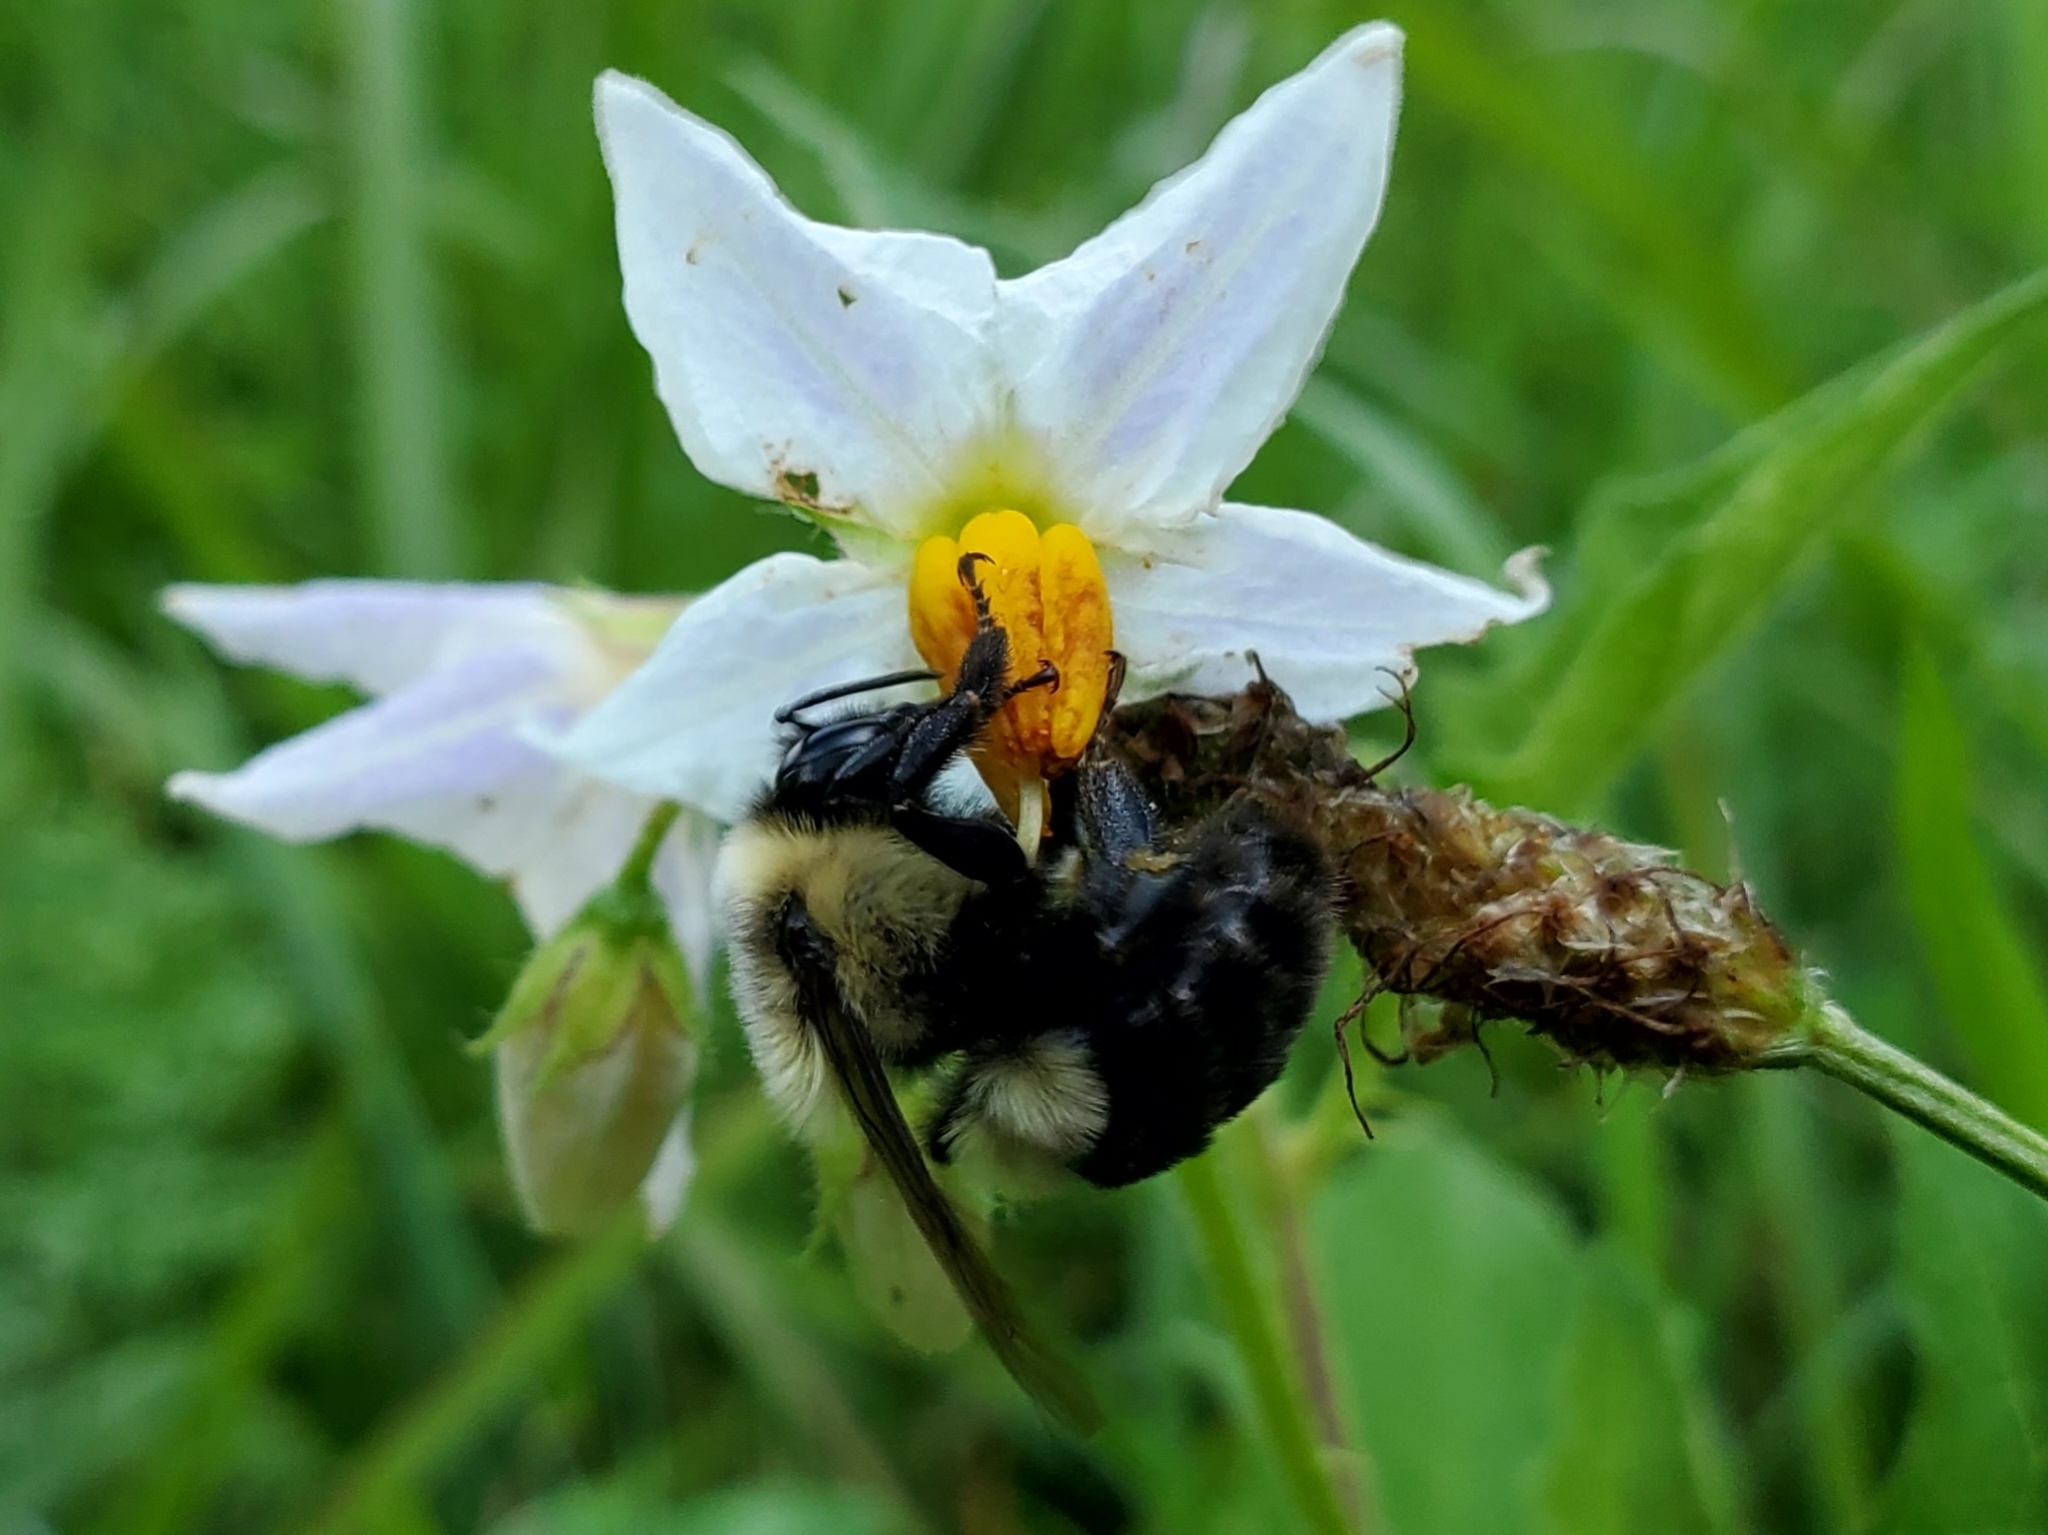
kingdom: Animalia
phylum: Arthropoda
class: Insecta
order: Hymenoptera
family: Apidae
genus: Bombus
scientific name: Bombus impatiens
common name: Common eastern bumble bee
